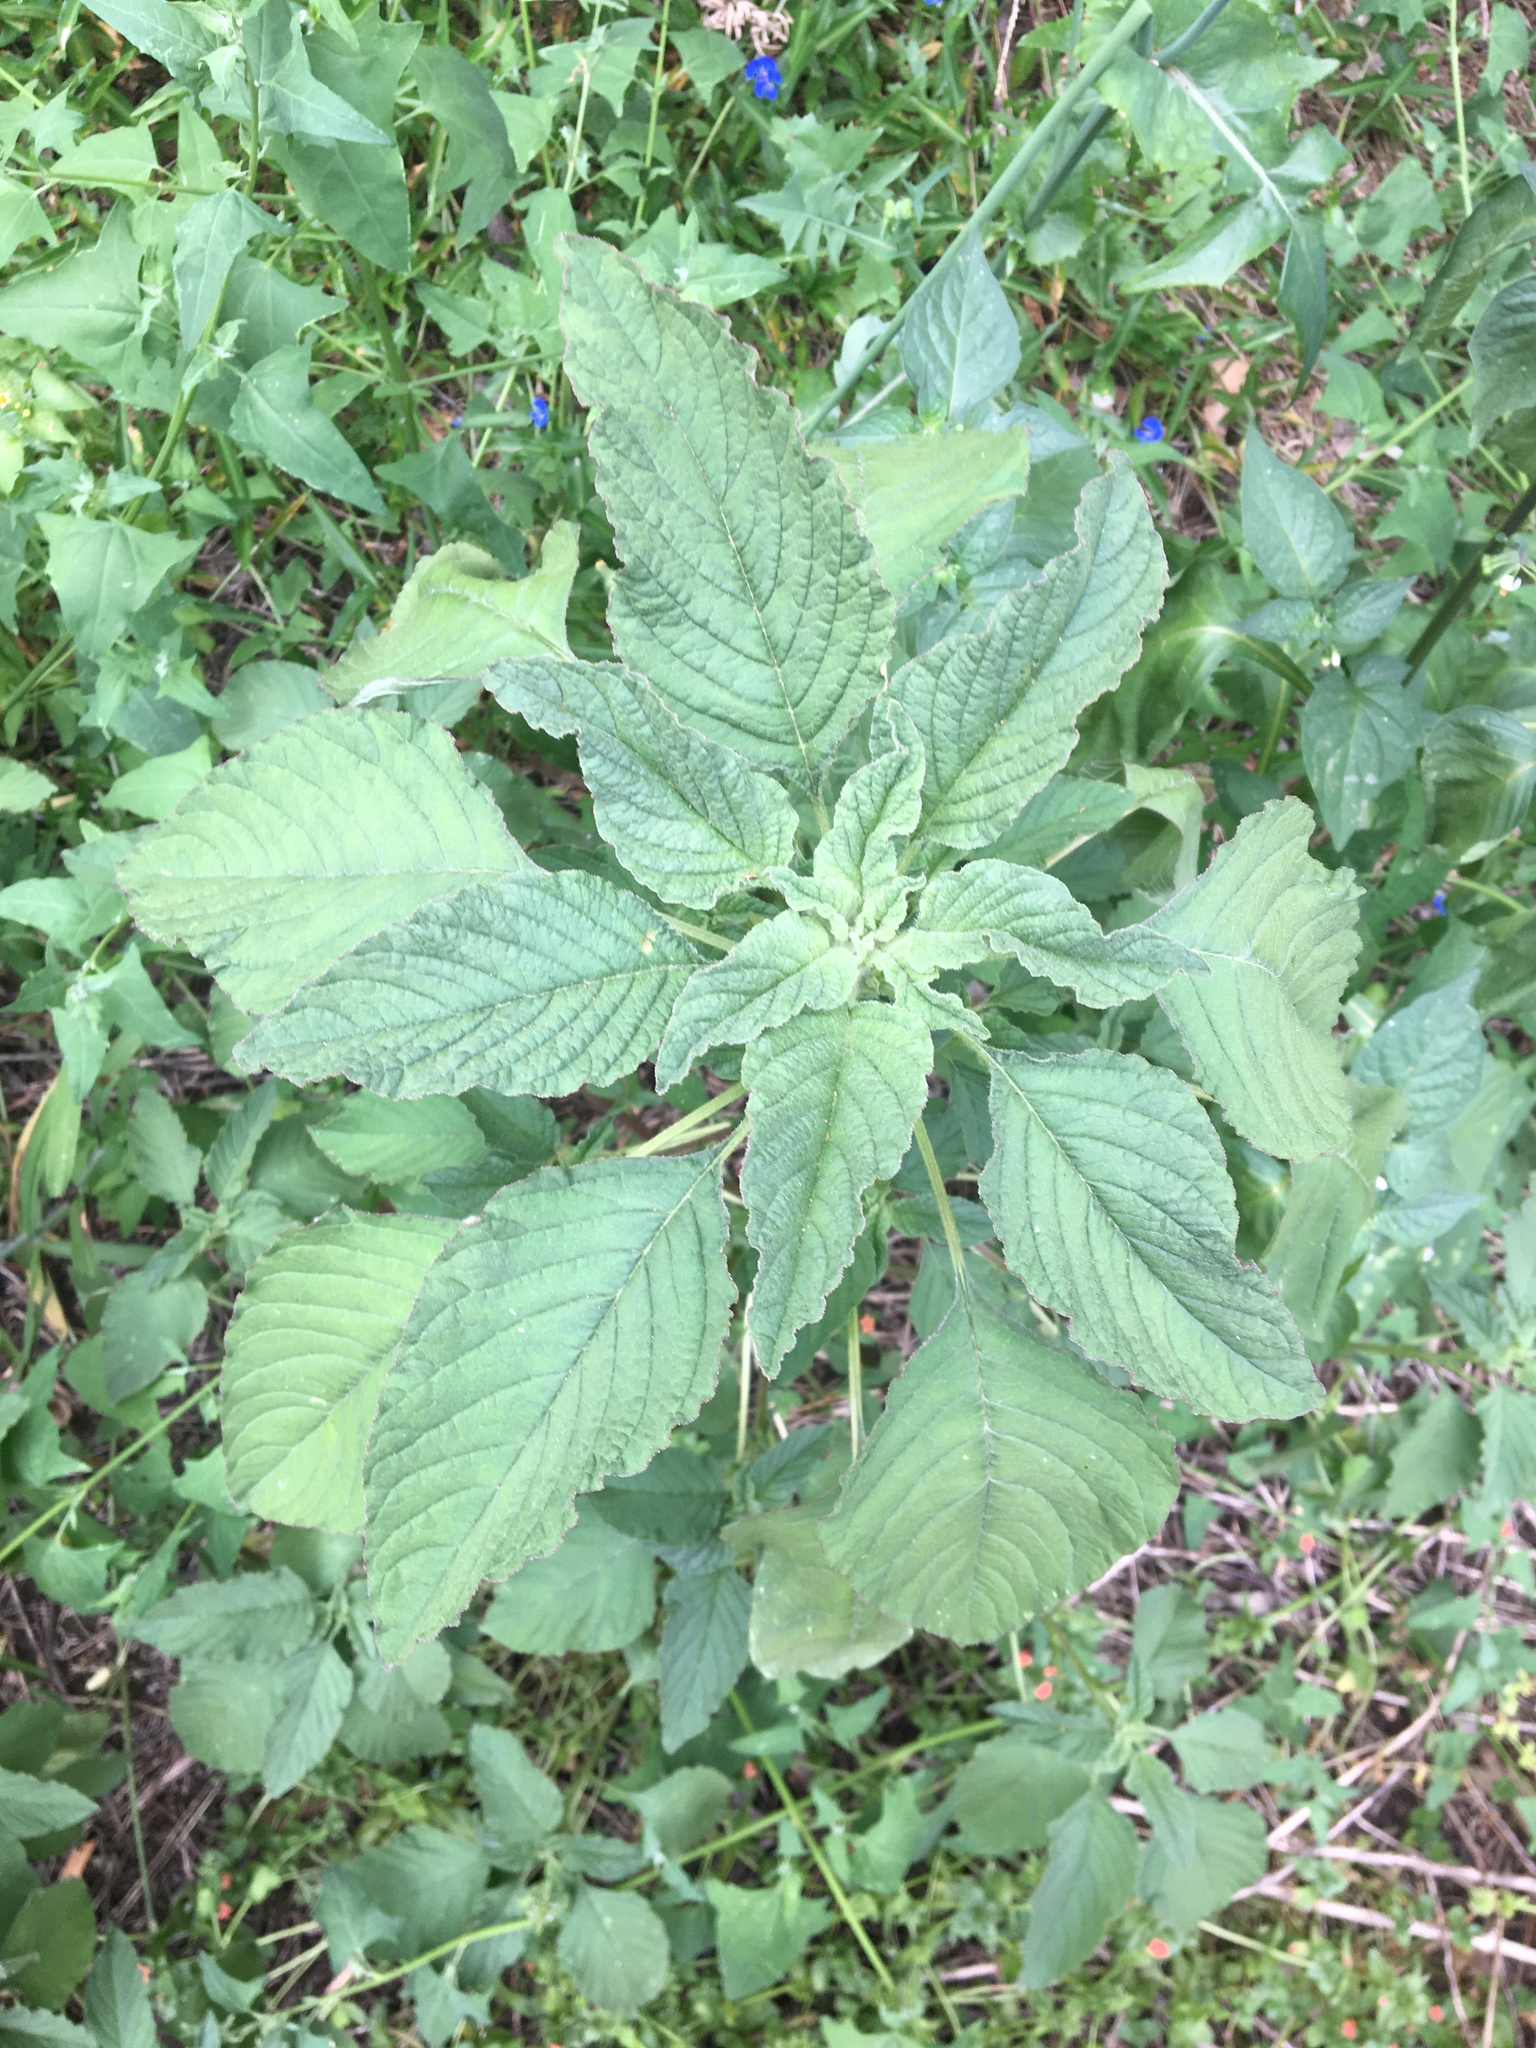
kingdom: Plantae
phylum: Tracheophyta
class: Magnoliopsida
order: Caryophyllales
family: Amaranthaceae
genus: Amaranthus
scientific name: Amaranthus viridis
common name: Slender amaranth
